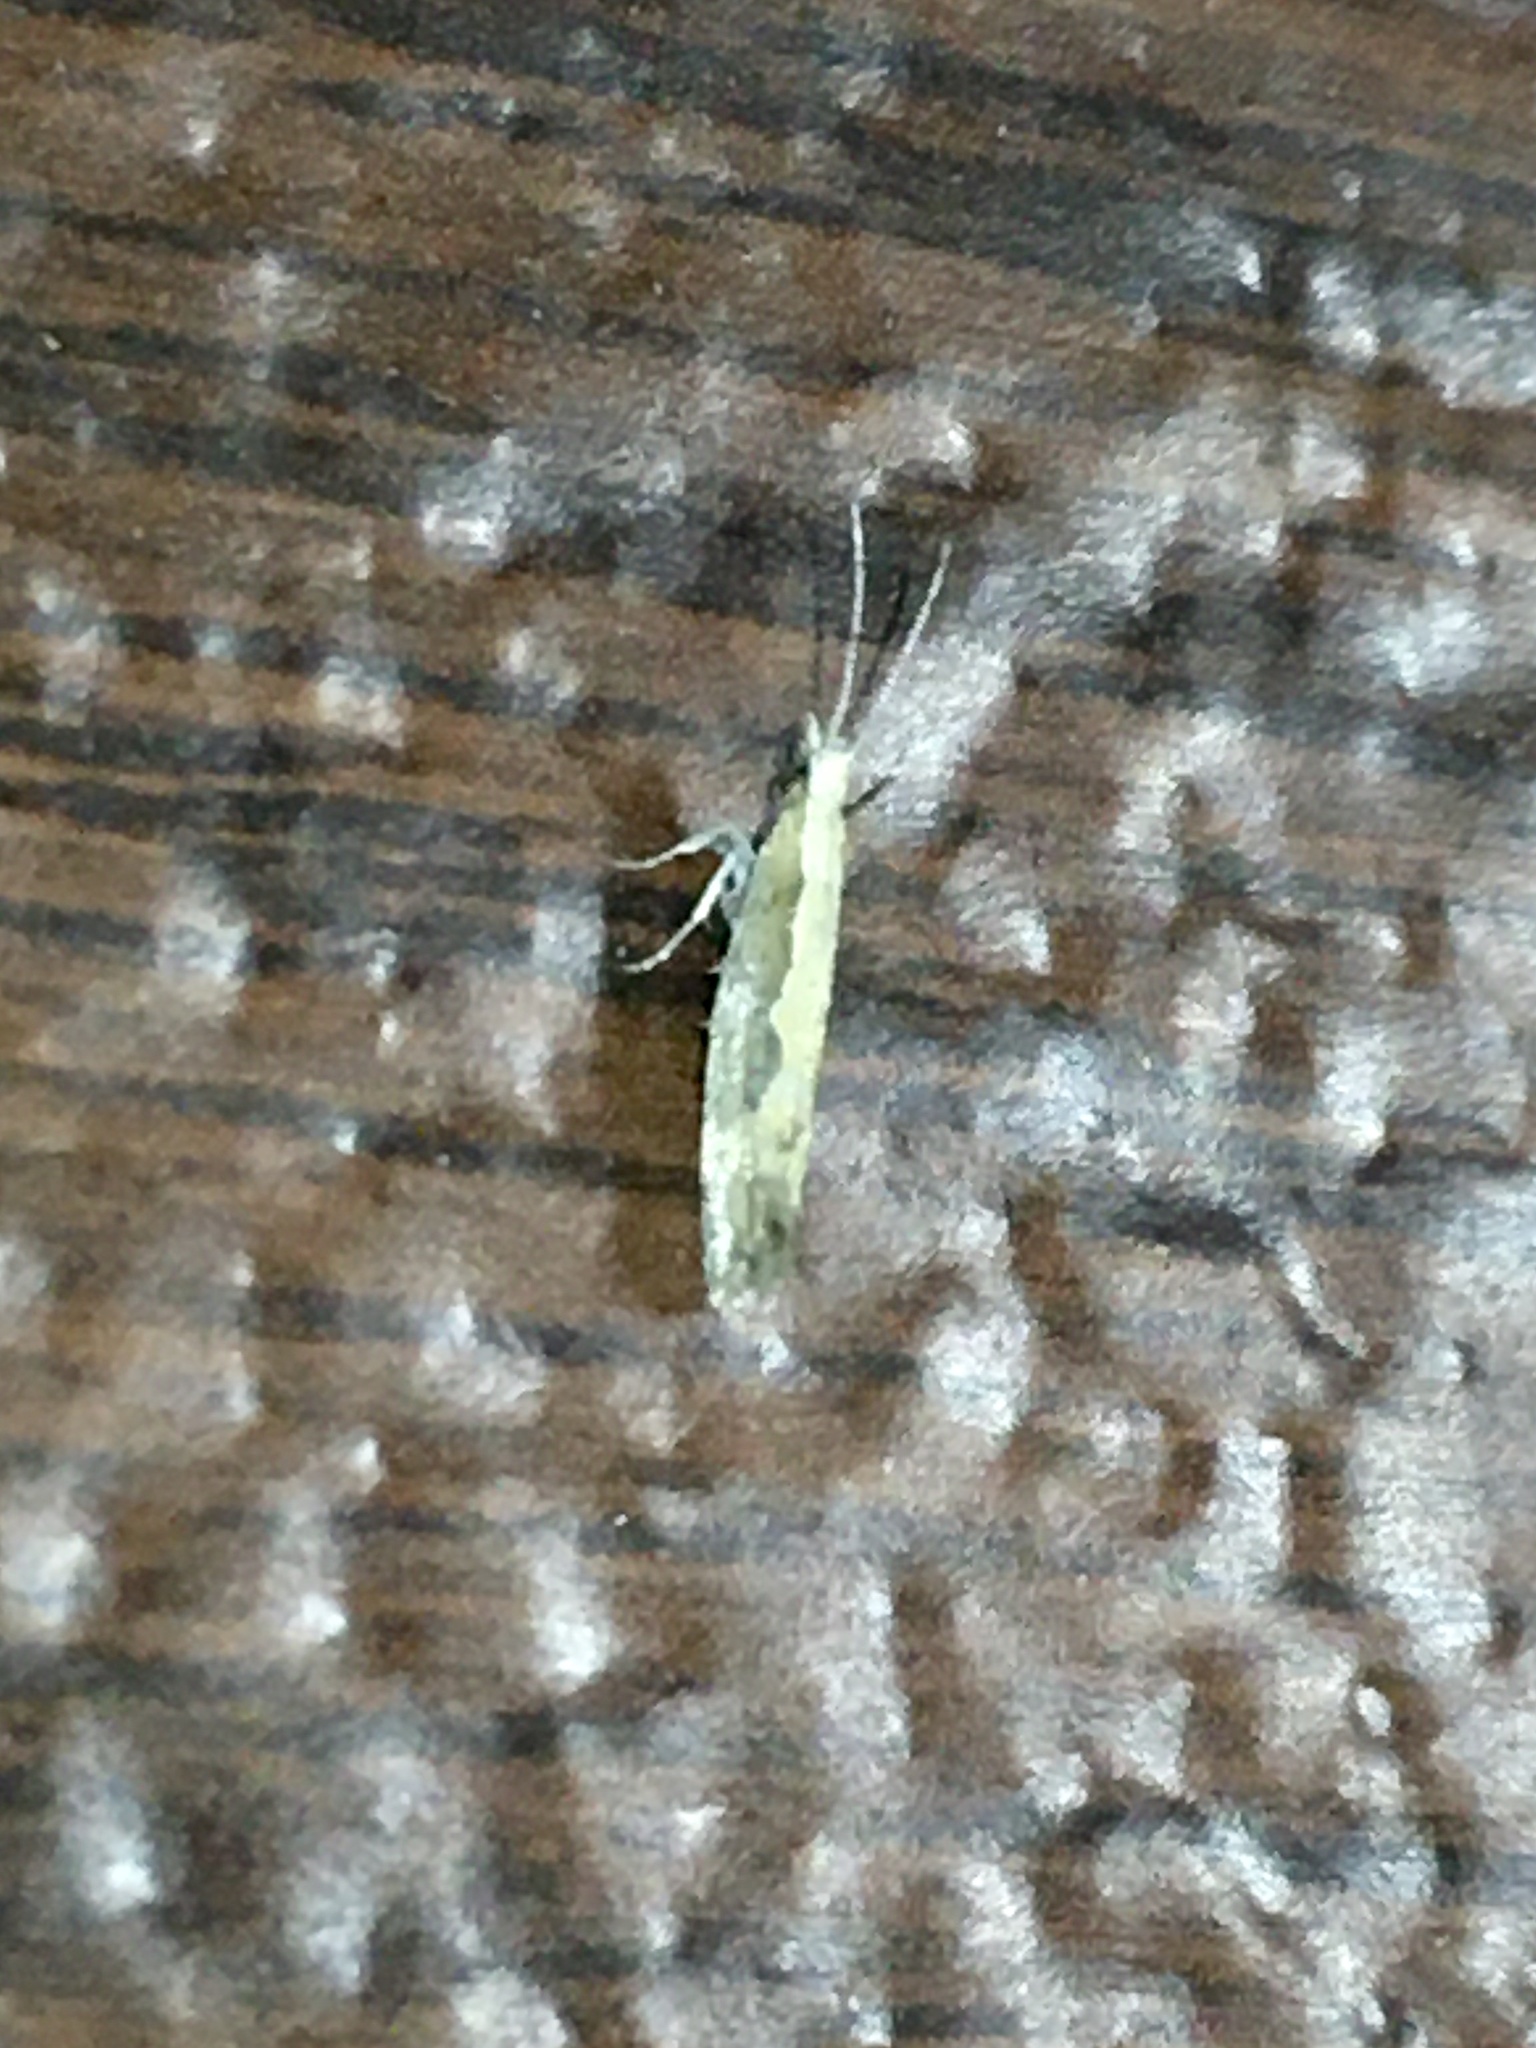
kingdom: Animalia
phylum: Arthropoda
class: Insecta
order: Lepidoptera
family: Plutellidae
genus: Plutella
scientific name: Plutella xylostella
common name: Diamond-back moth
